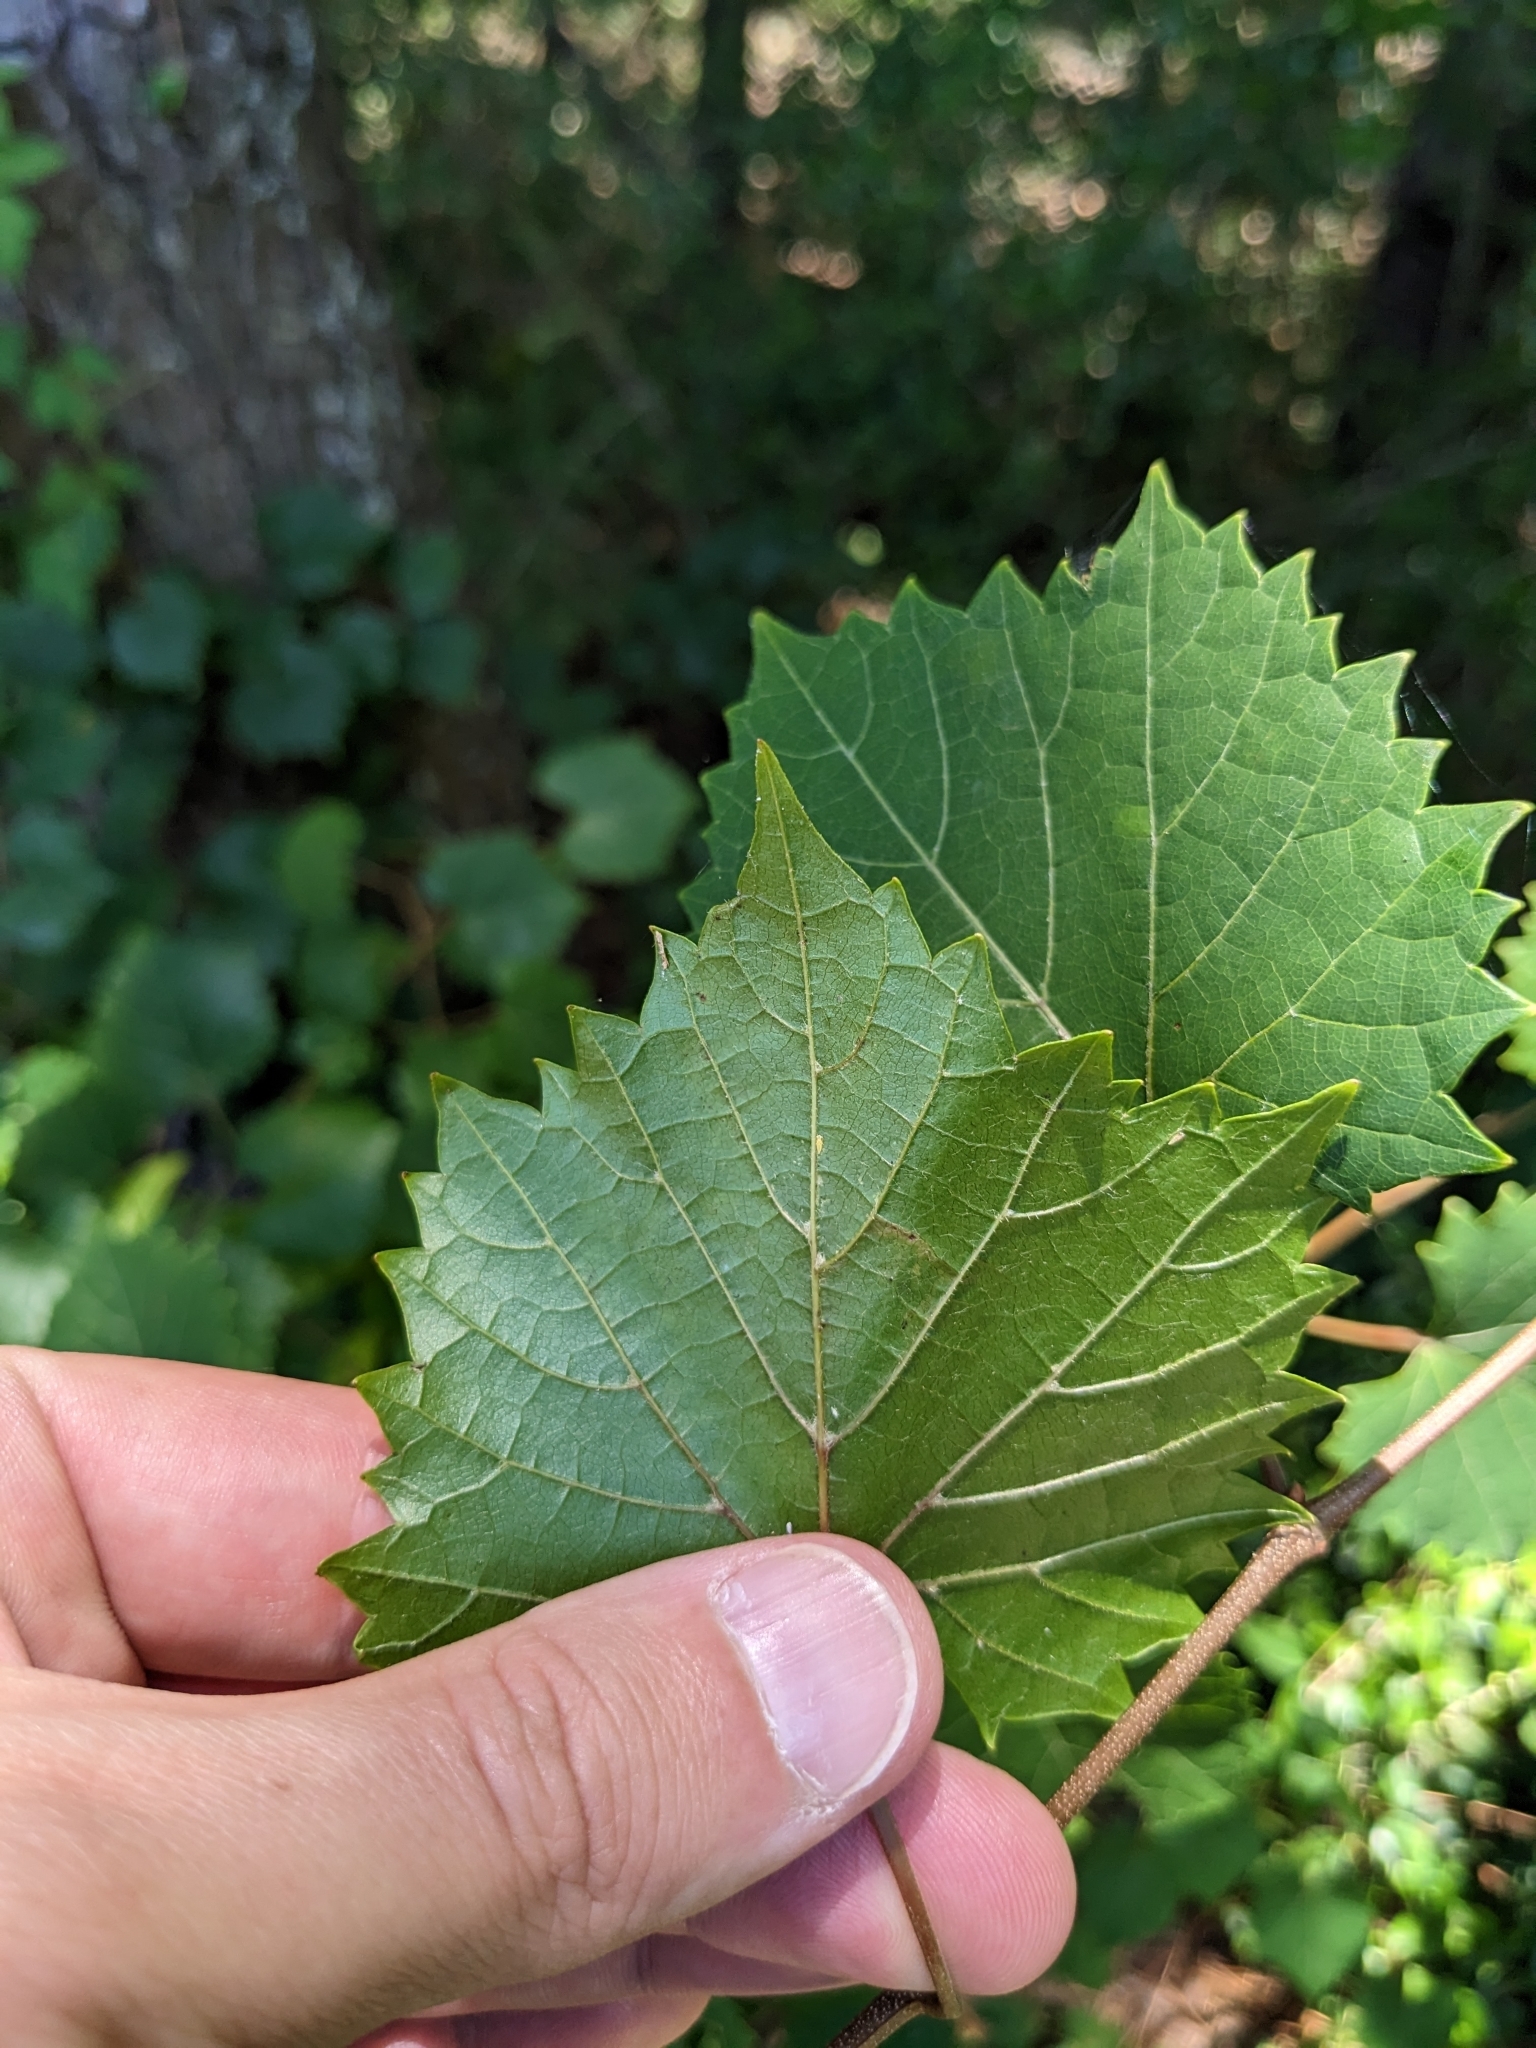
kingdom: Animalia
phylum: Arthropoda
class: Insecta
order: Lepidoptera
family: Gracillariidae
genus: Phyllocnistis
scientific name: Phyllocnistis vitegenella
